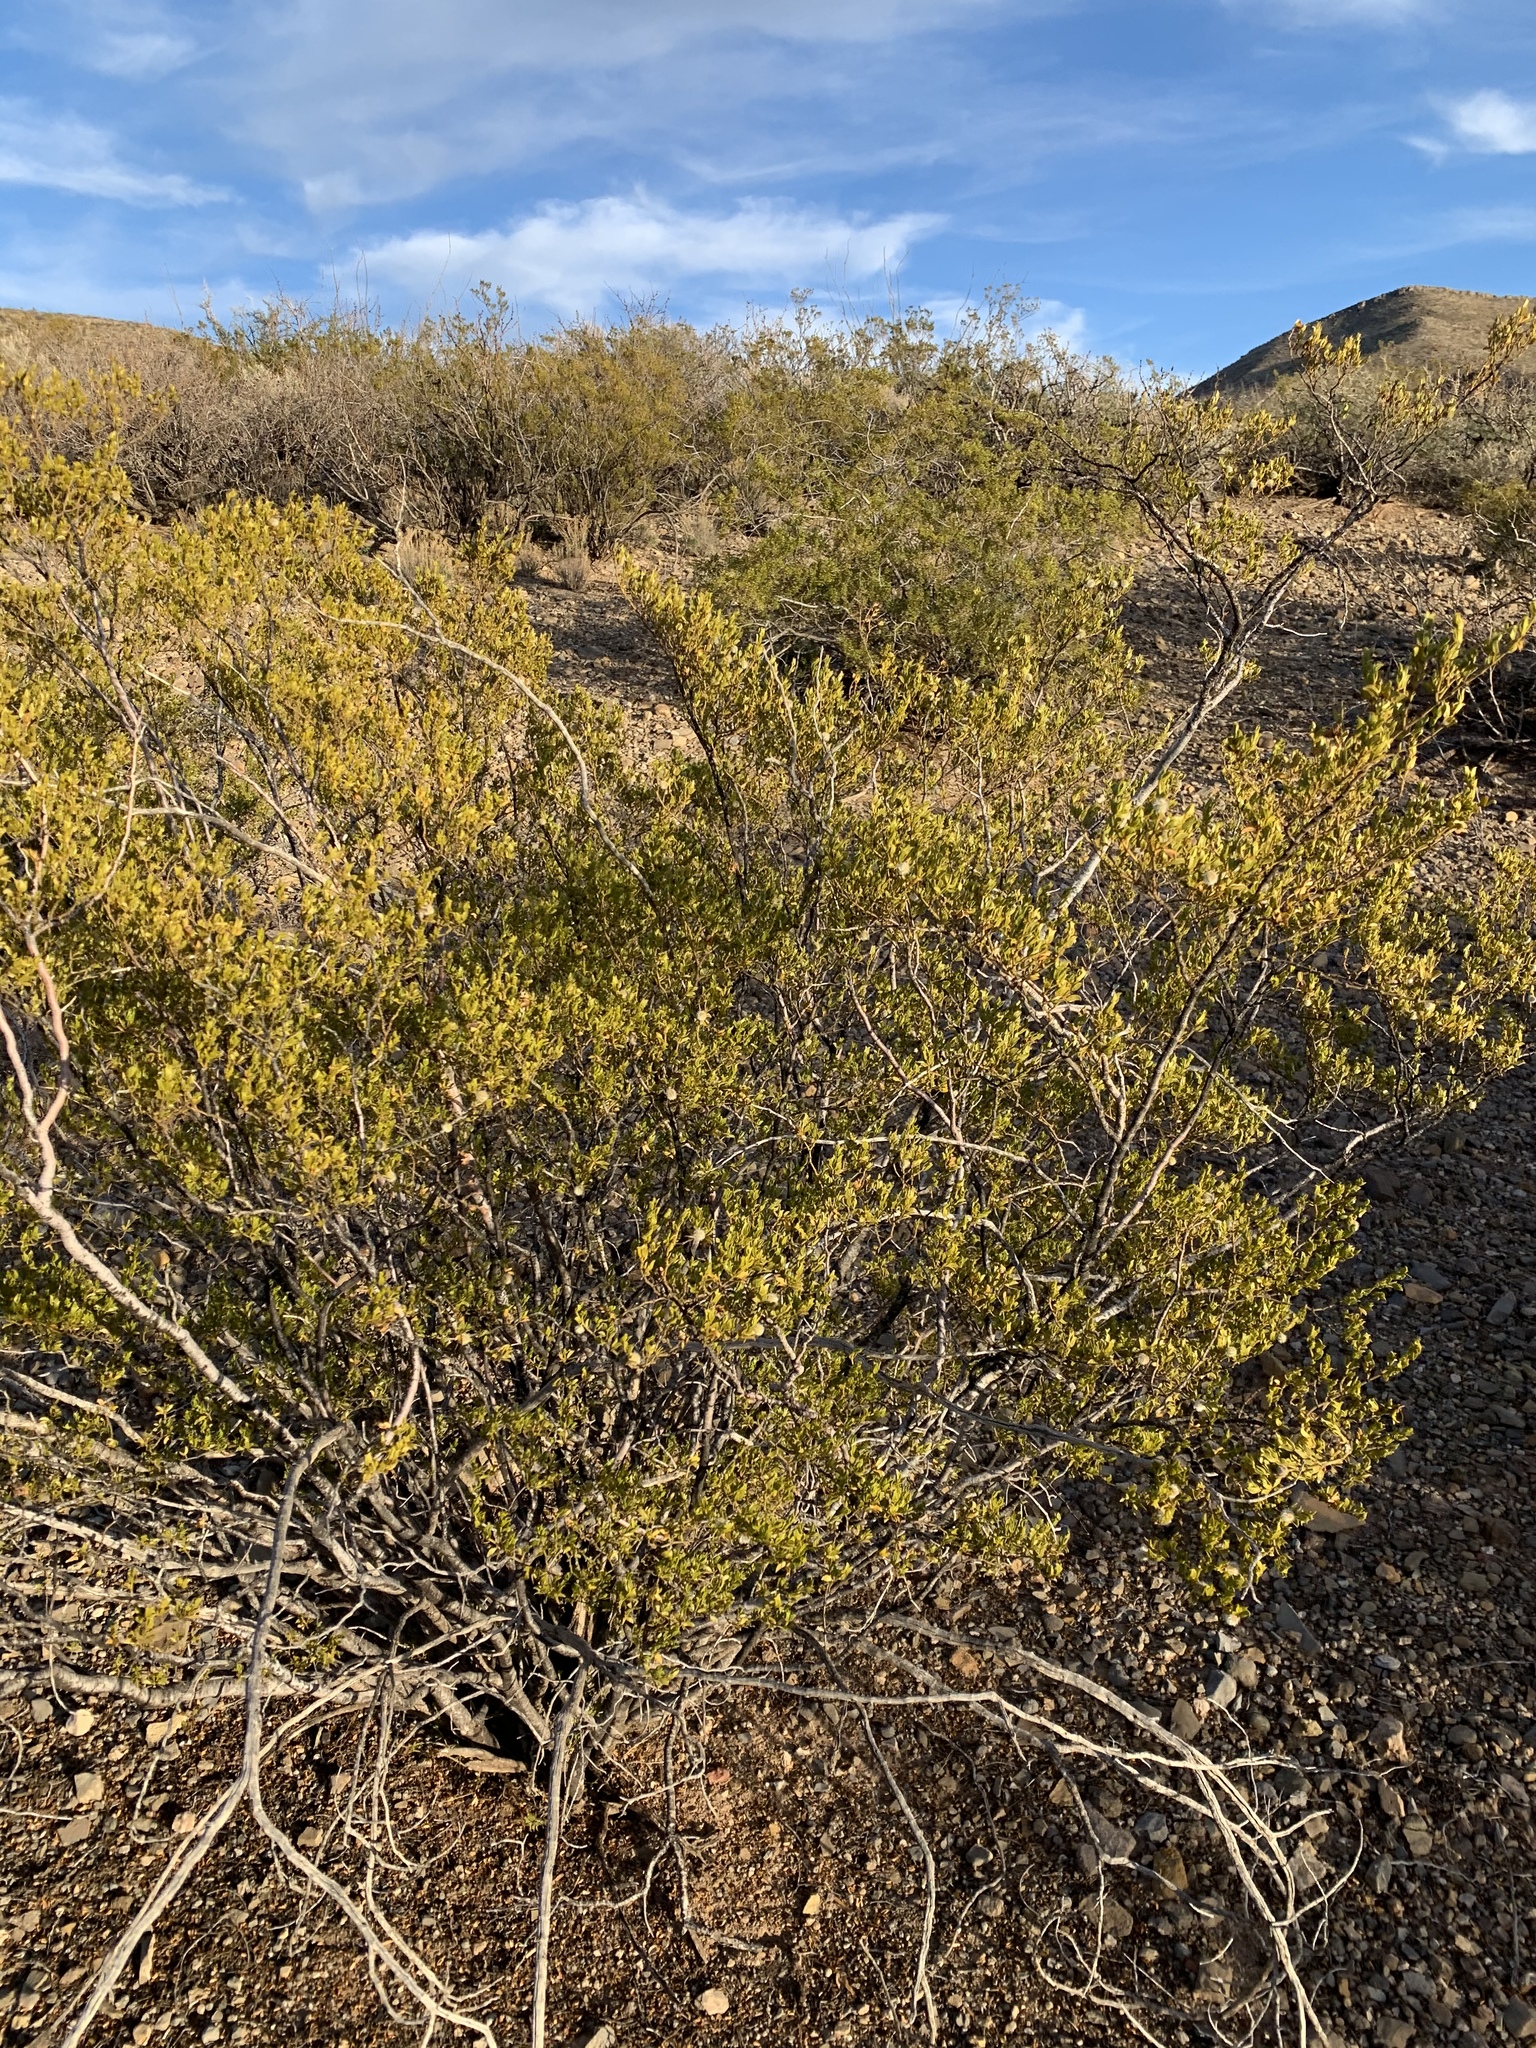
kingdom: Plantae
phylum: Tracheophyta
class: Magnoliopsida
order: Zygophyllales
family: Zygophyllaceae
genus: Larrea
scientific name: Larrea tridentata
